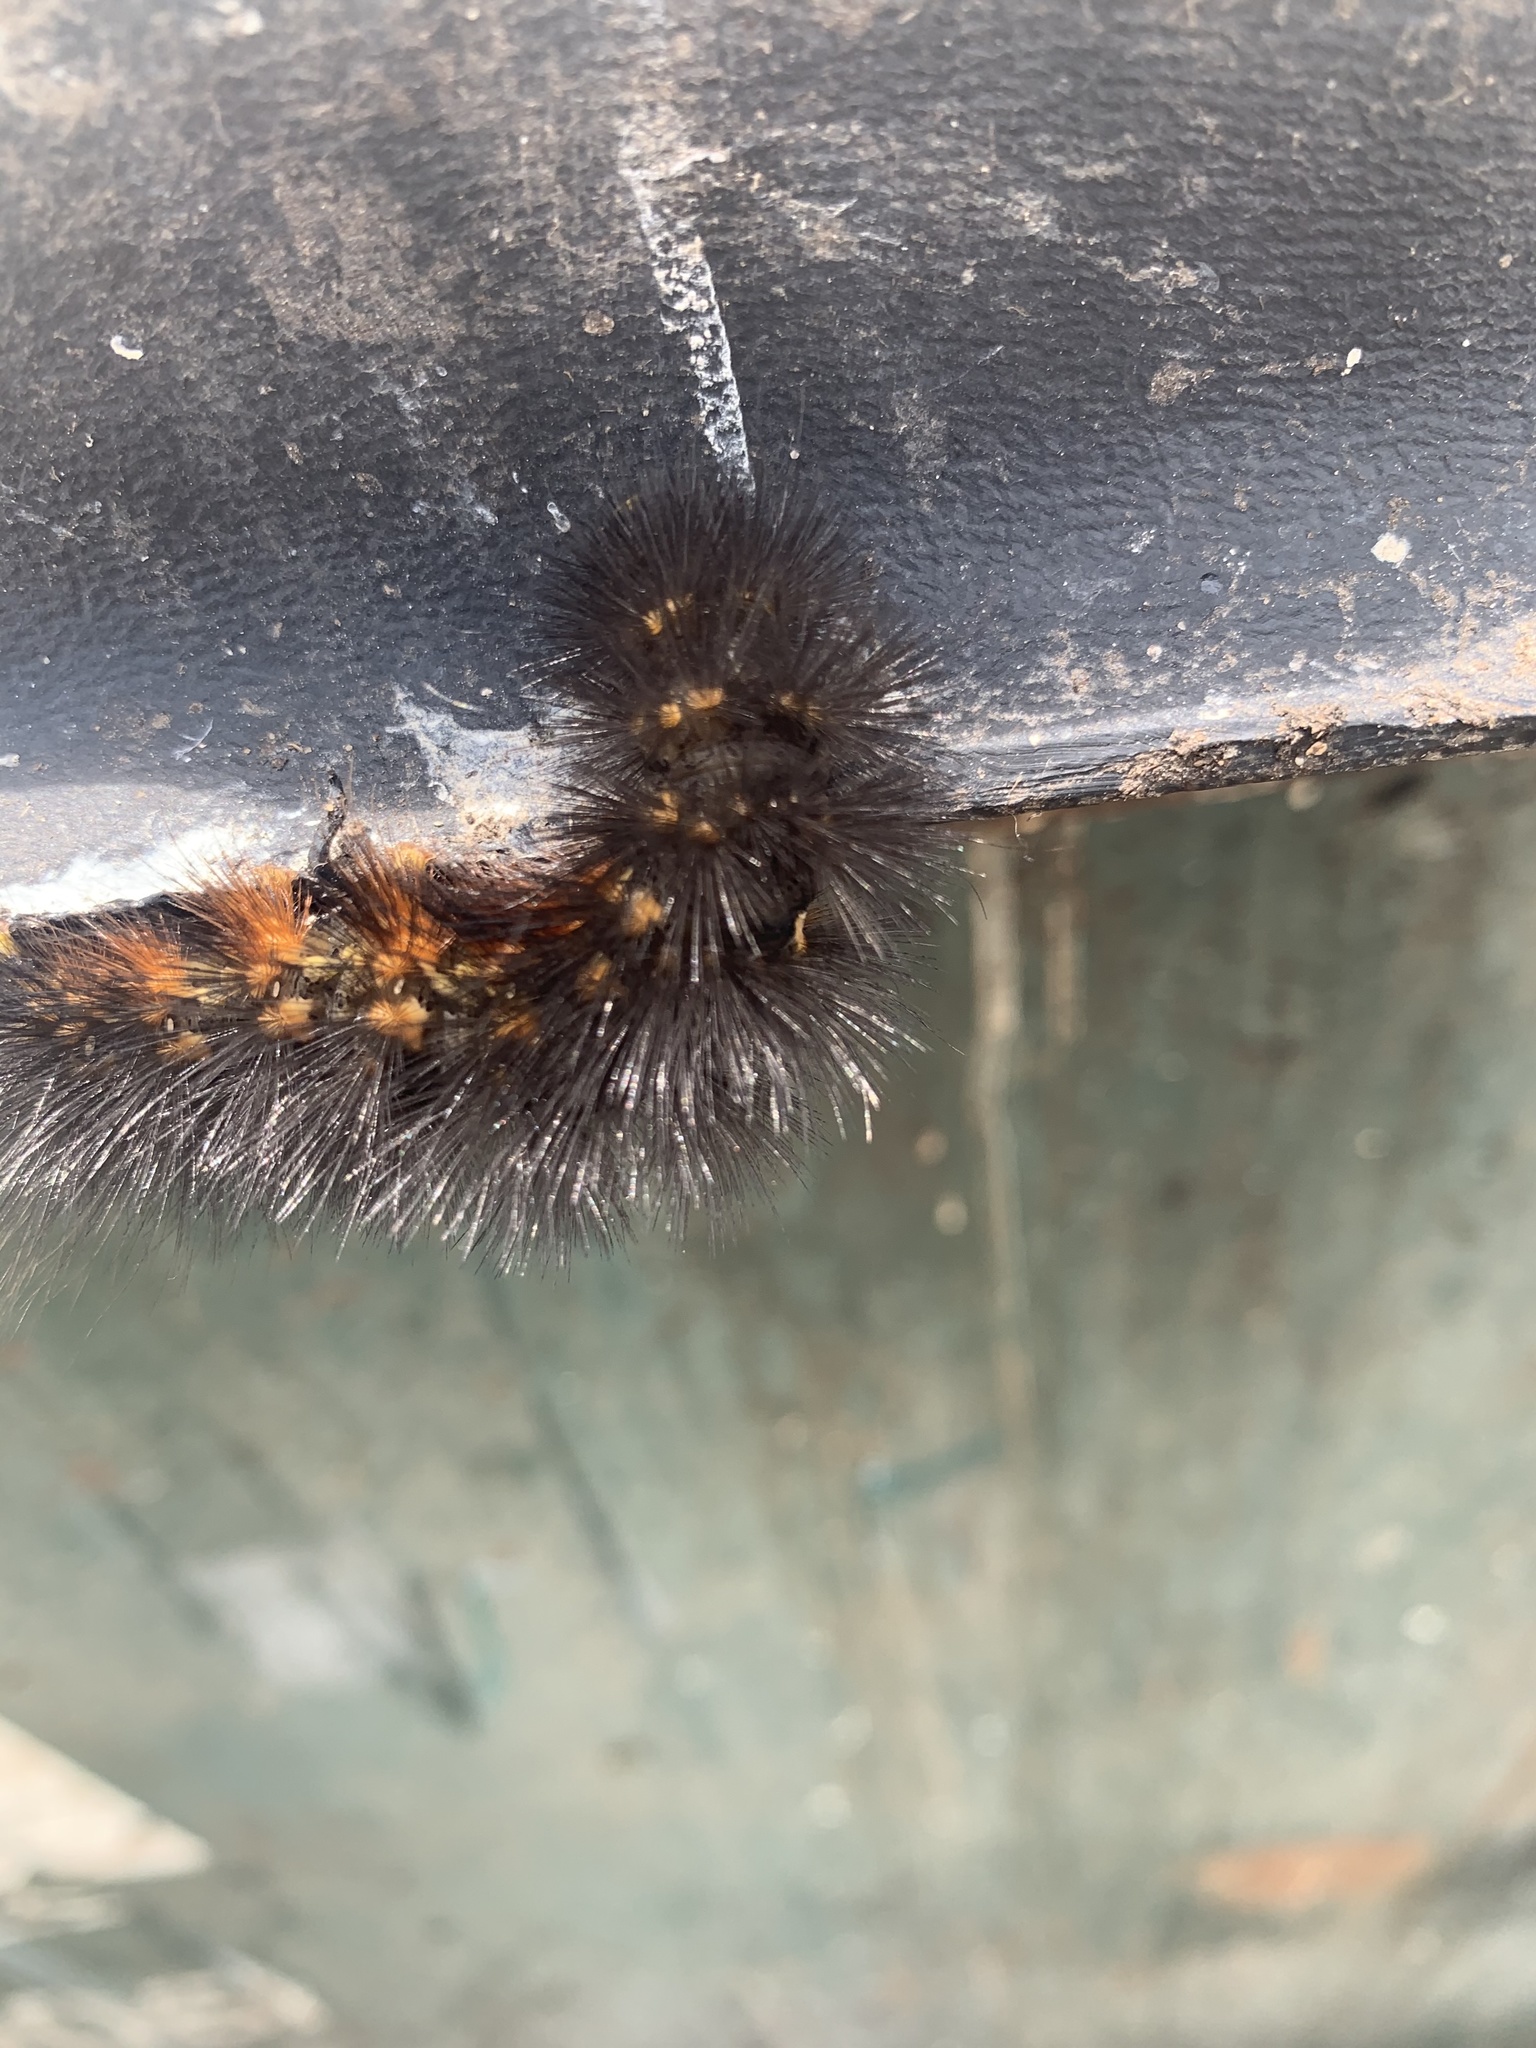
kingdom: Animalia
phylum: Arthropoda
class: Insecta
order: Lepidoptera
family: Erebidae
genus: Estigmene
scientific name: Estigmene acrea
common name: Salt marsh moth
